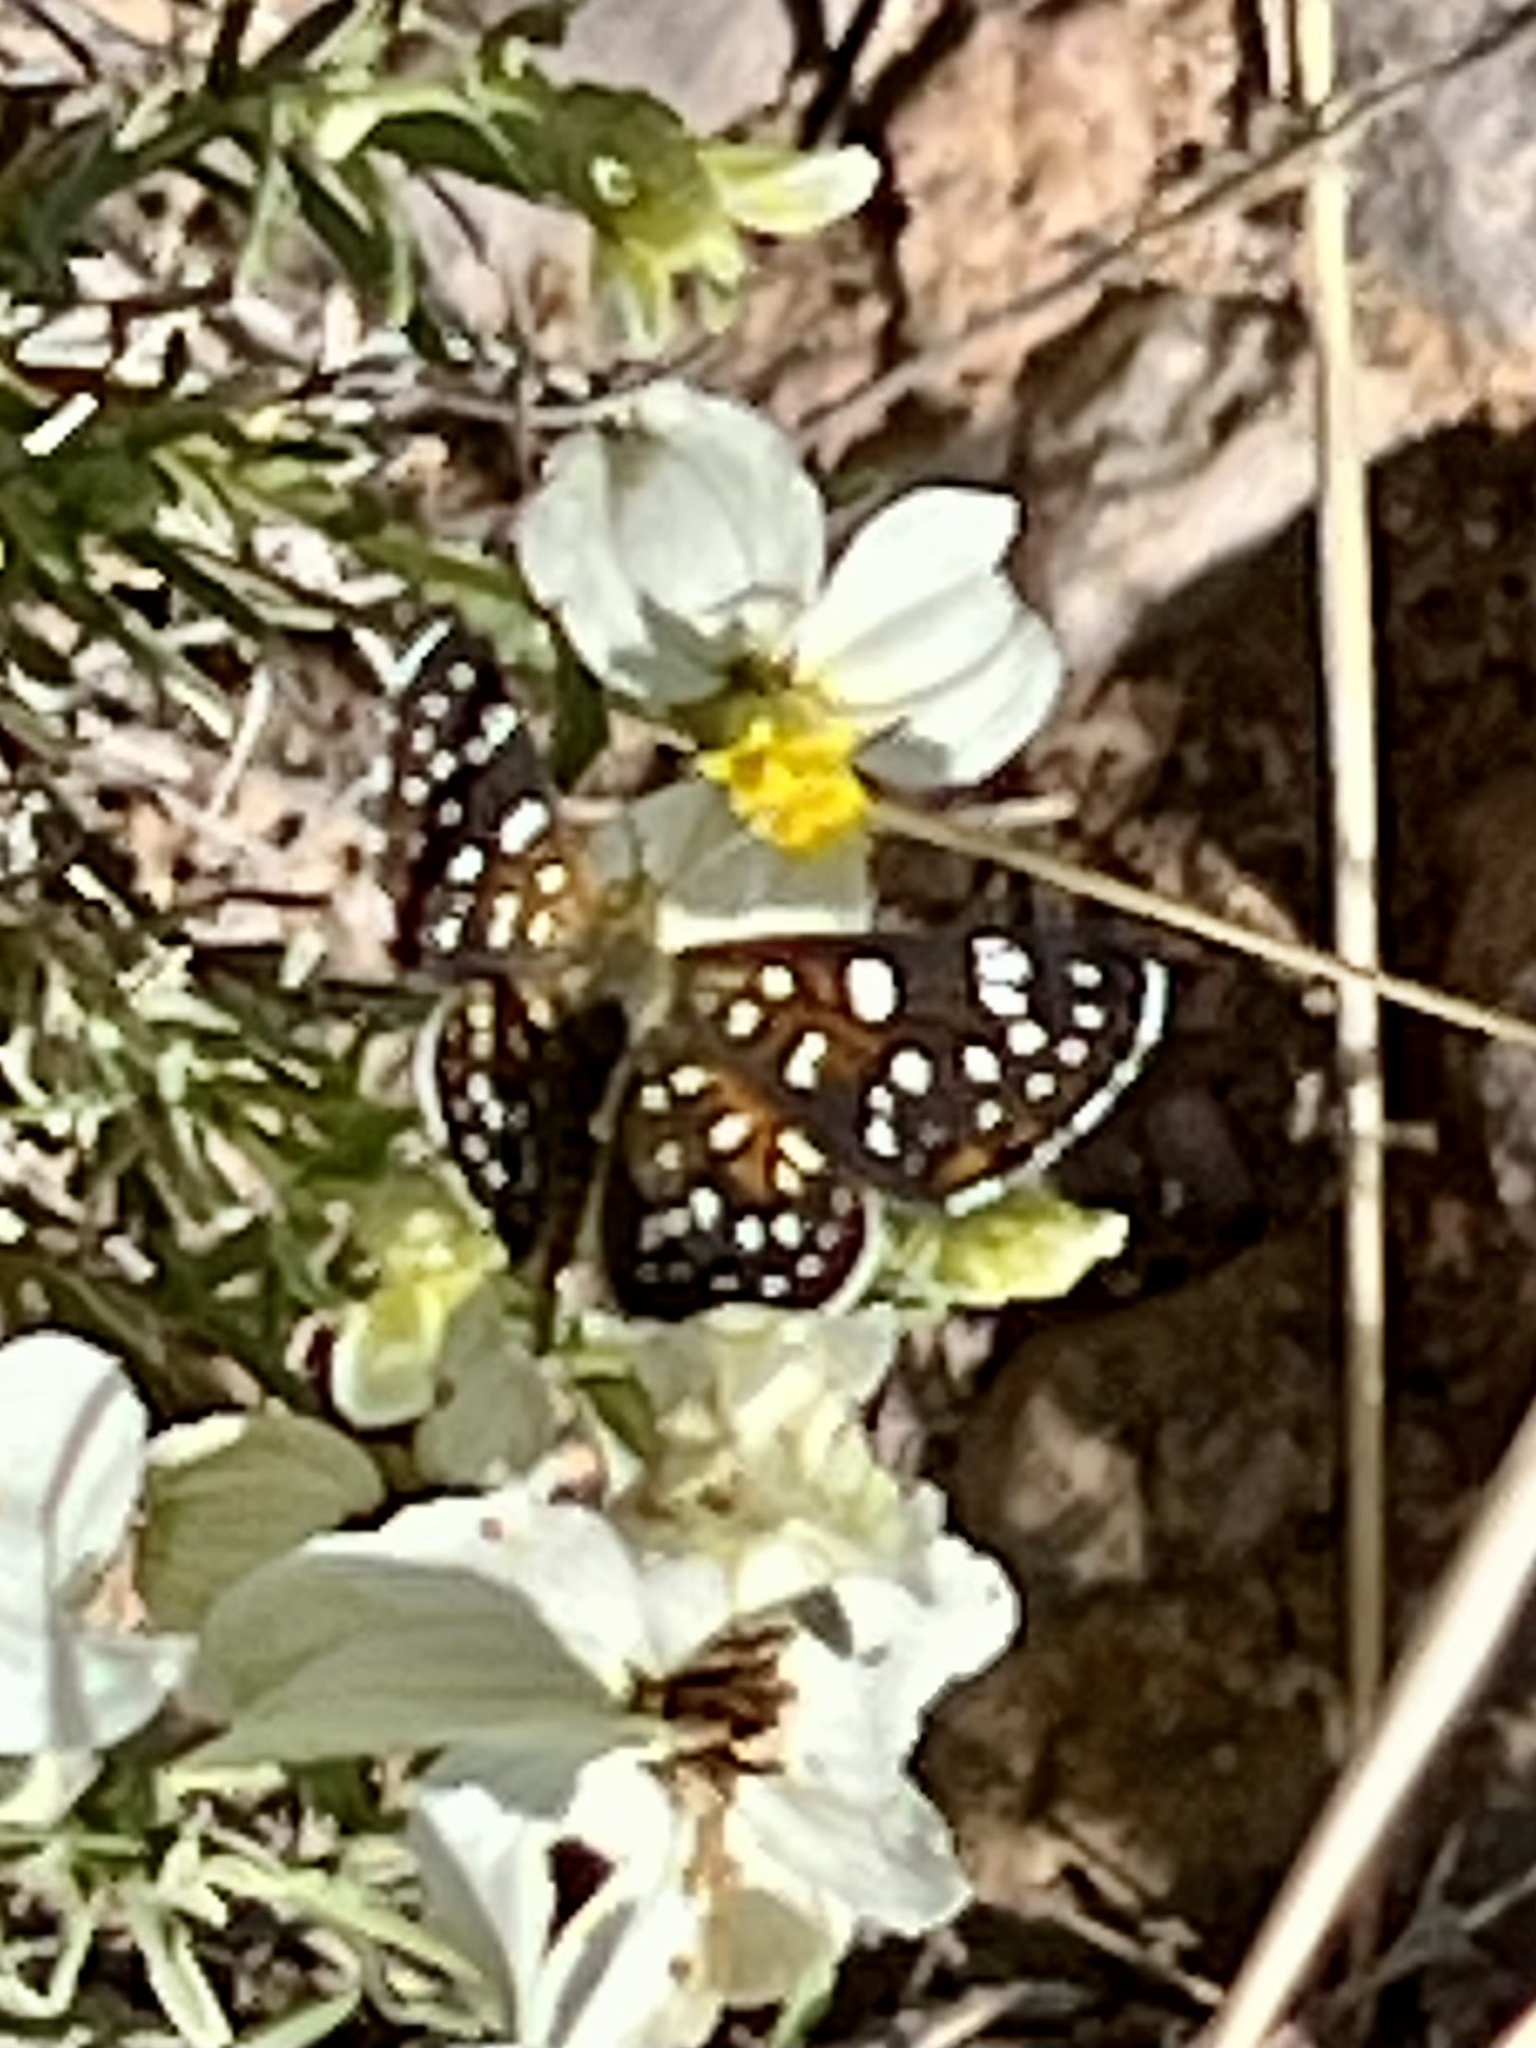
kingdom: Animalia
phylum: Arthropoda
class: Insecta
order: Lepidoptera
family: Riodinidae
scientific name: Riodinidae
